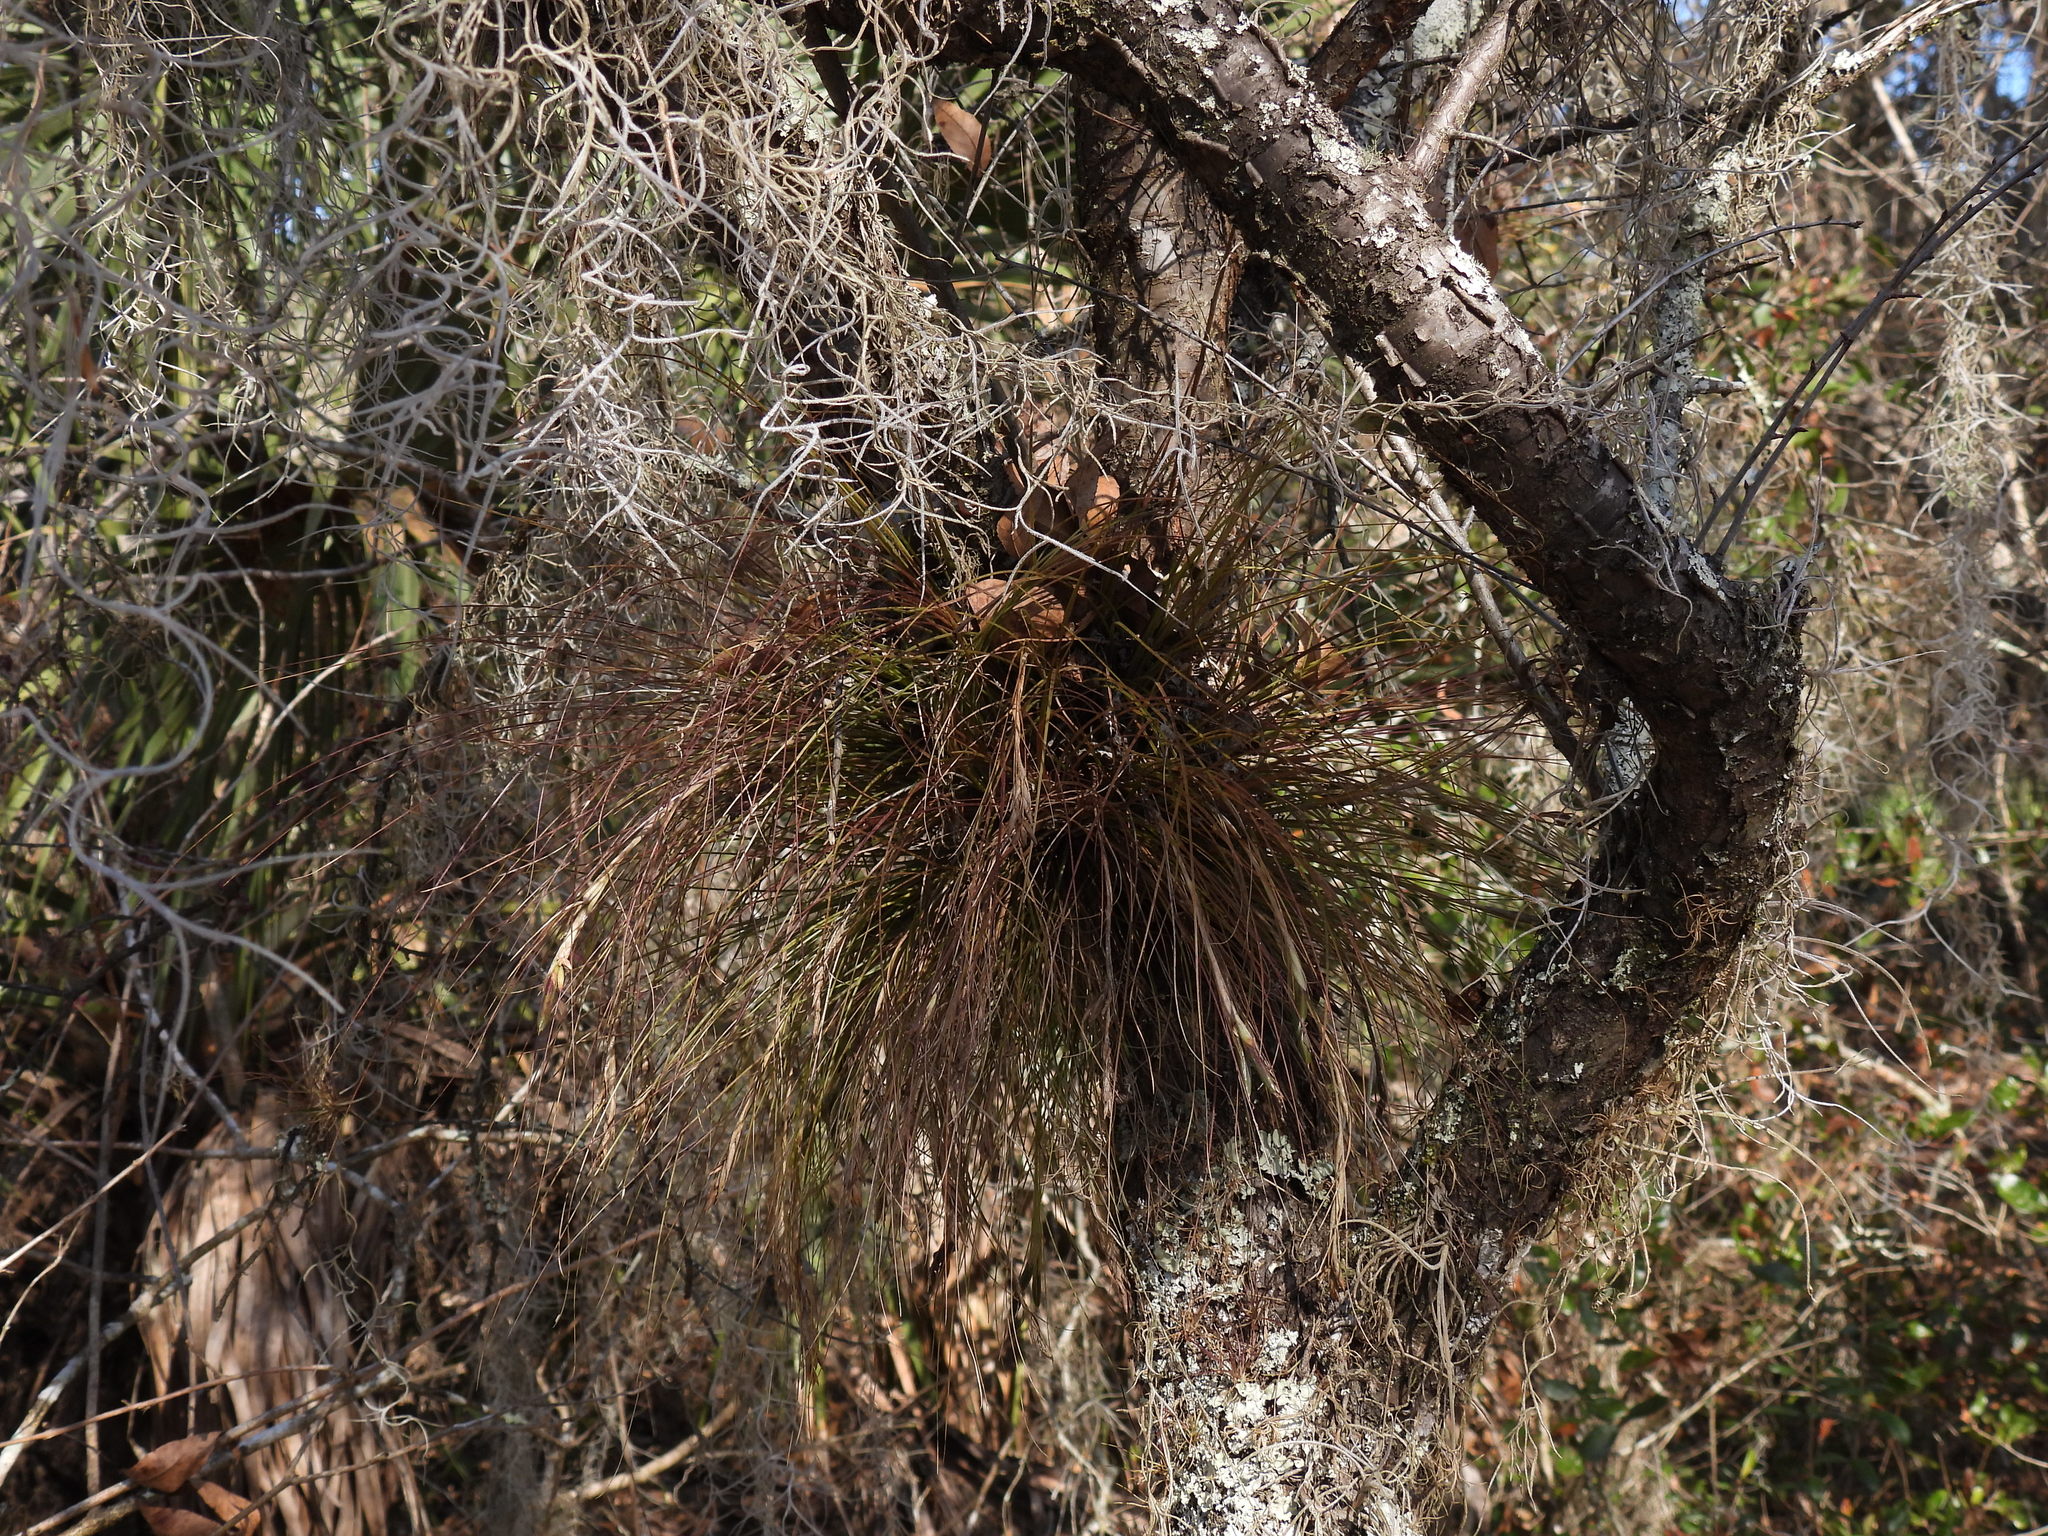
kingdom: Plantae
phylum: Tracheophyta
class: Liliopsida
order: Poales
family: Bromeliaceae
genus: Tillandsia
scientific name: Tillandsia setacea
